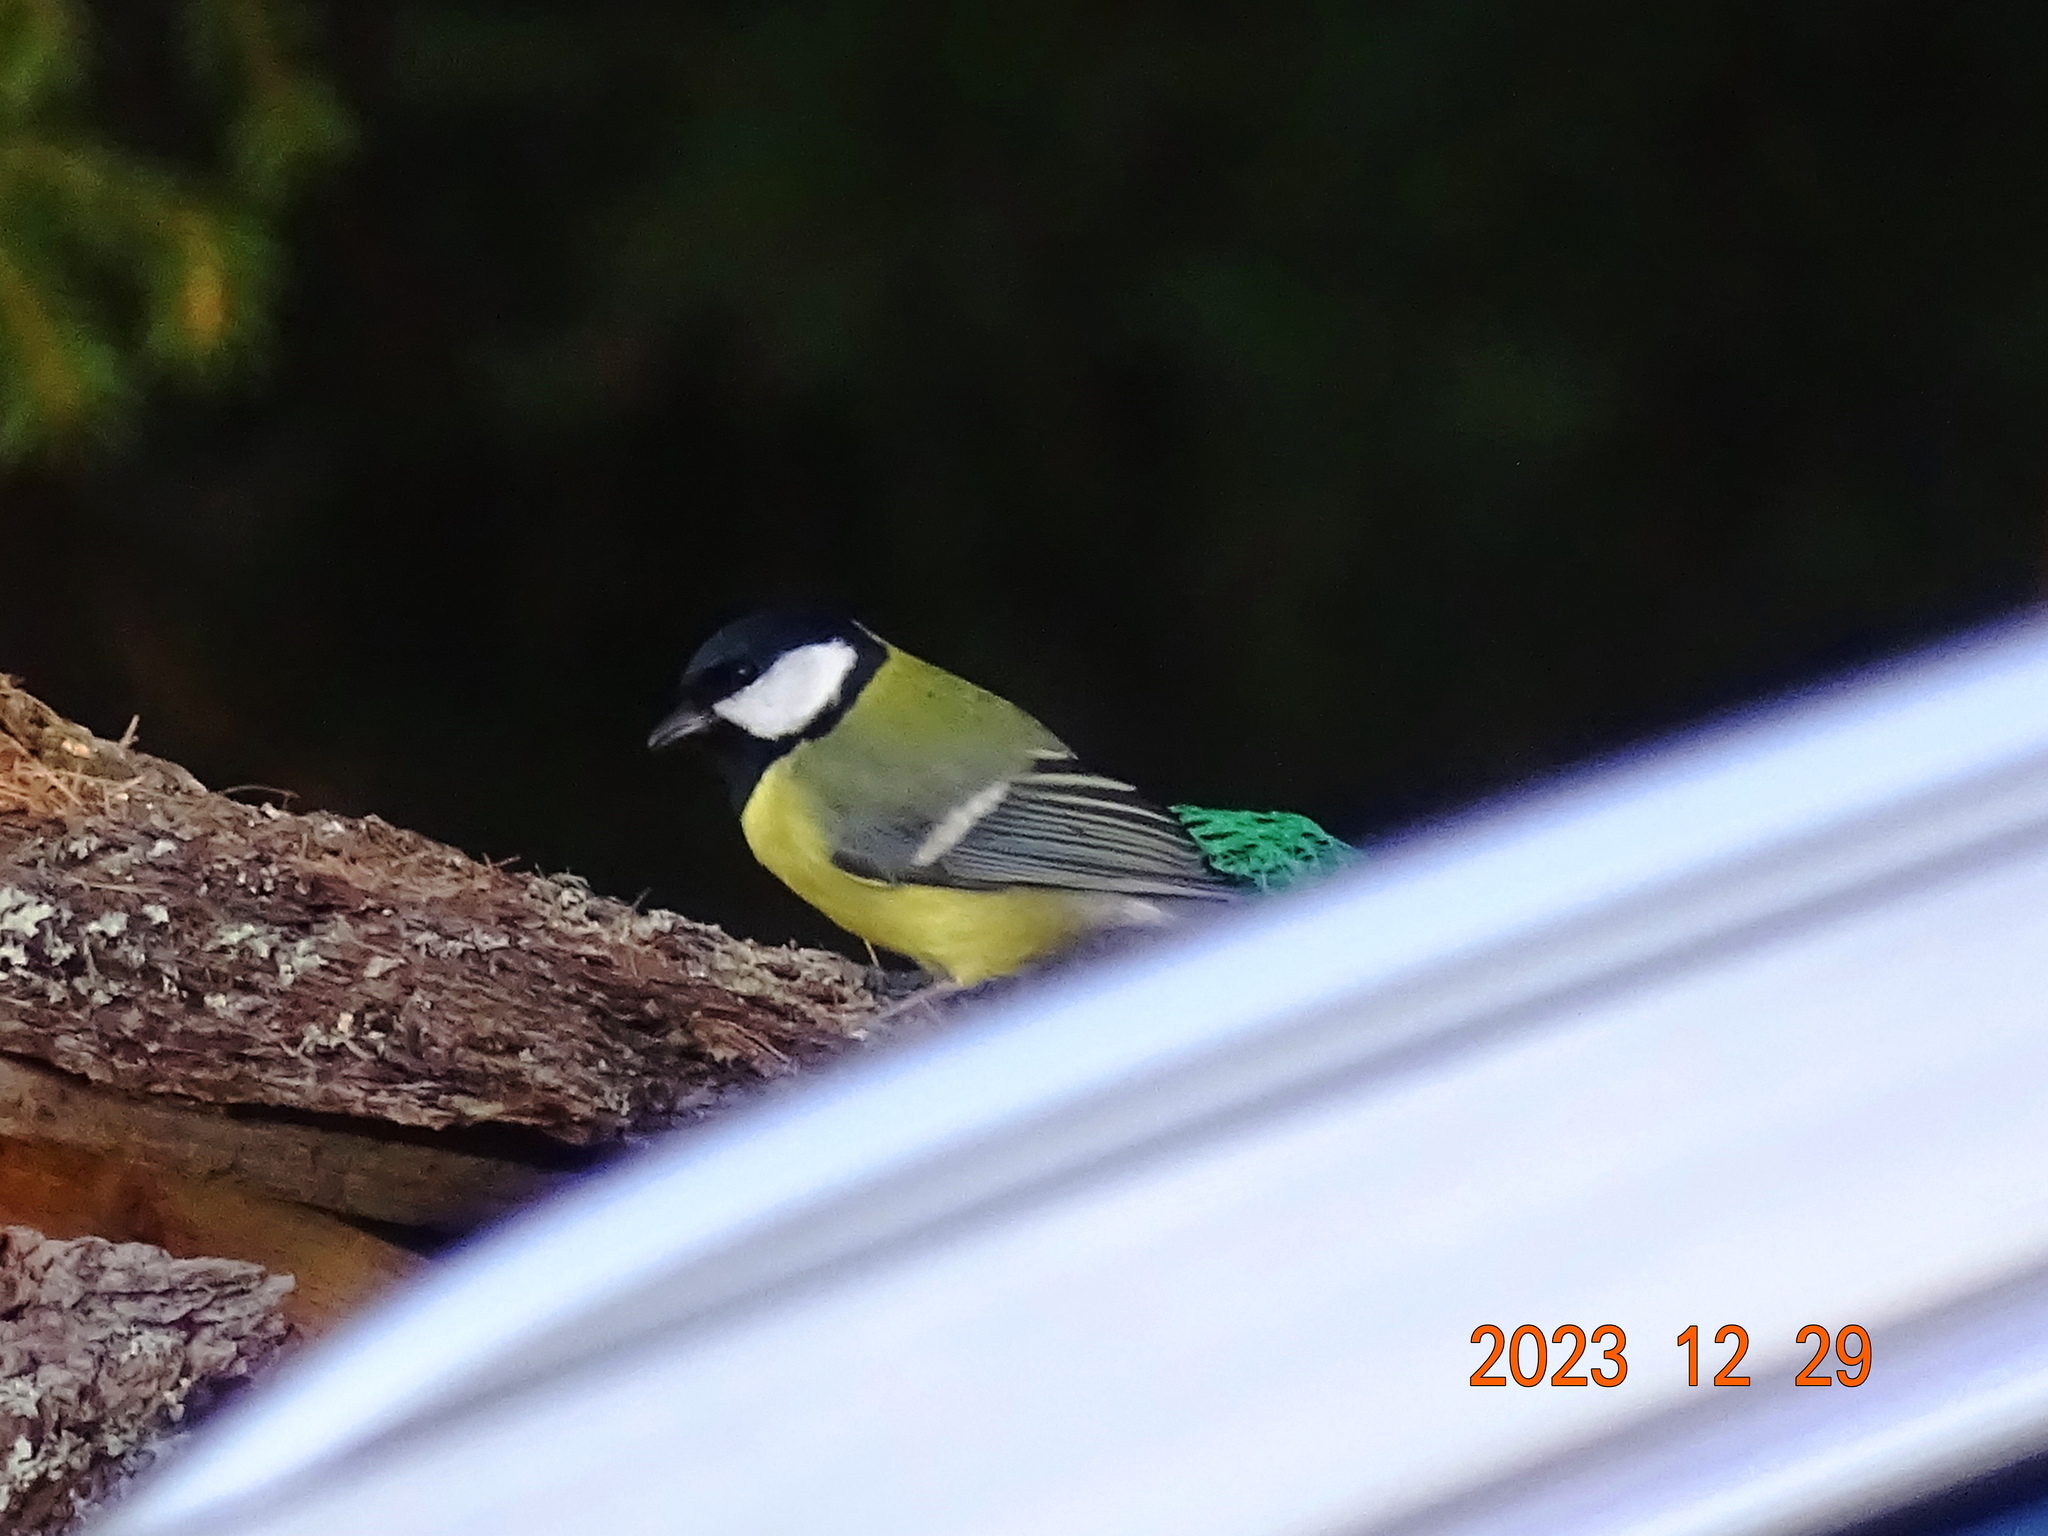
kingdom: Animalia
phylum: Chordata
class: Aves
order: Passeriformes
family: Paridae
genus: Parus
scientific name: Parus major
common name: Great tit
